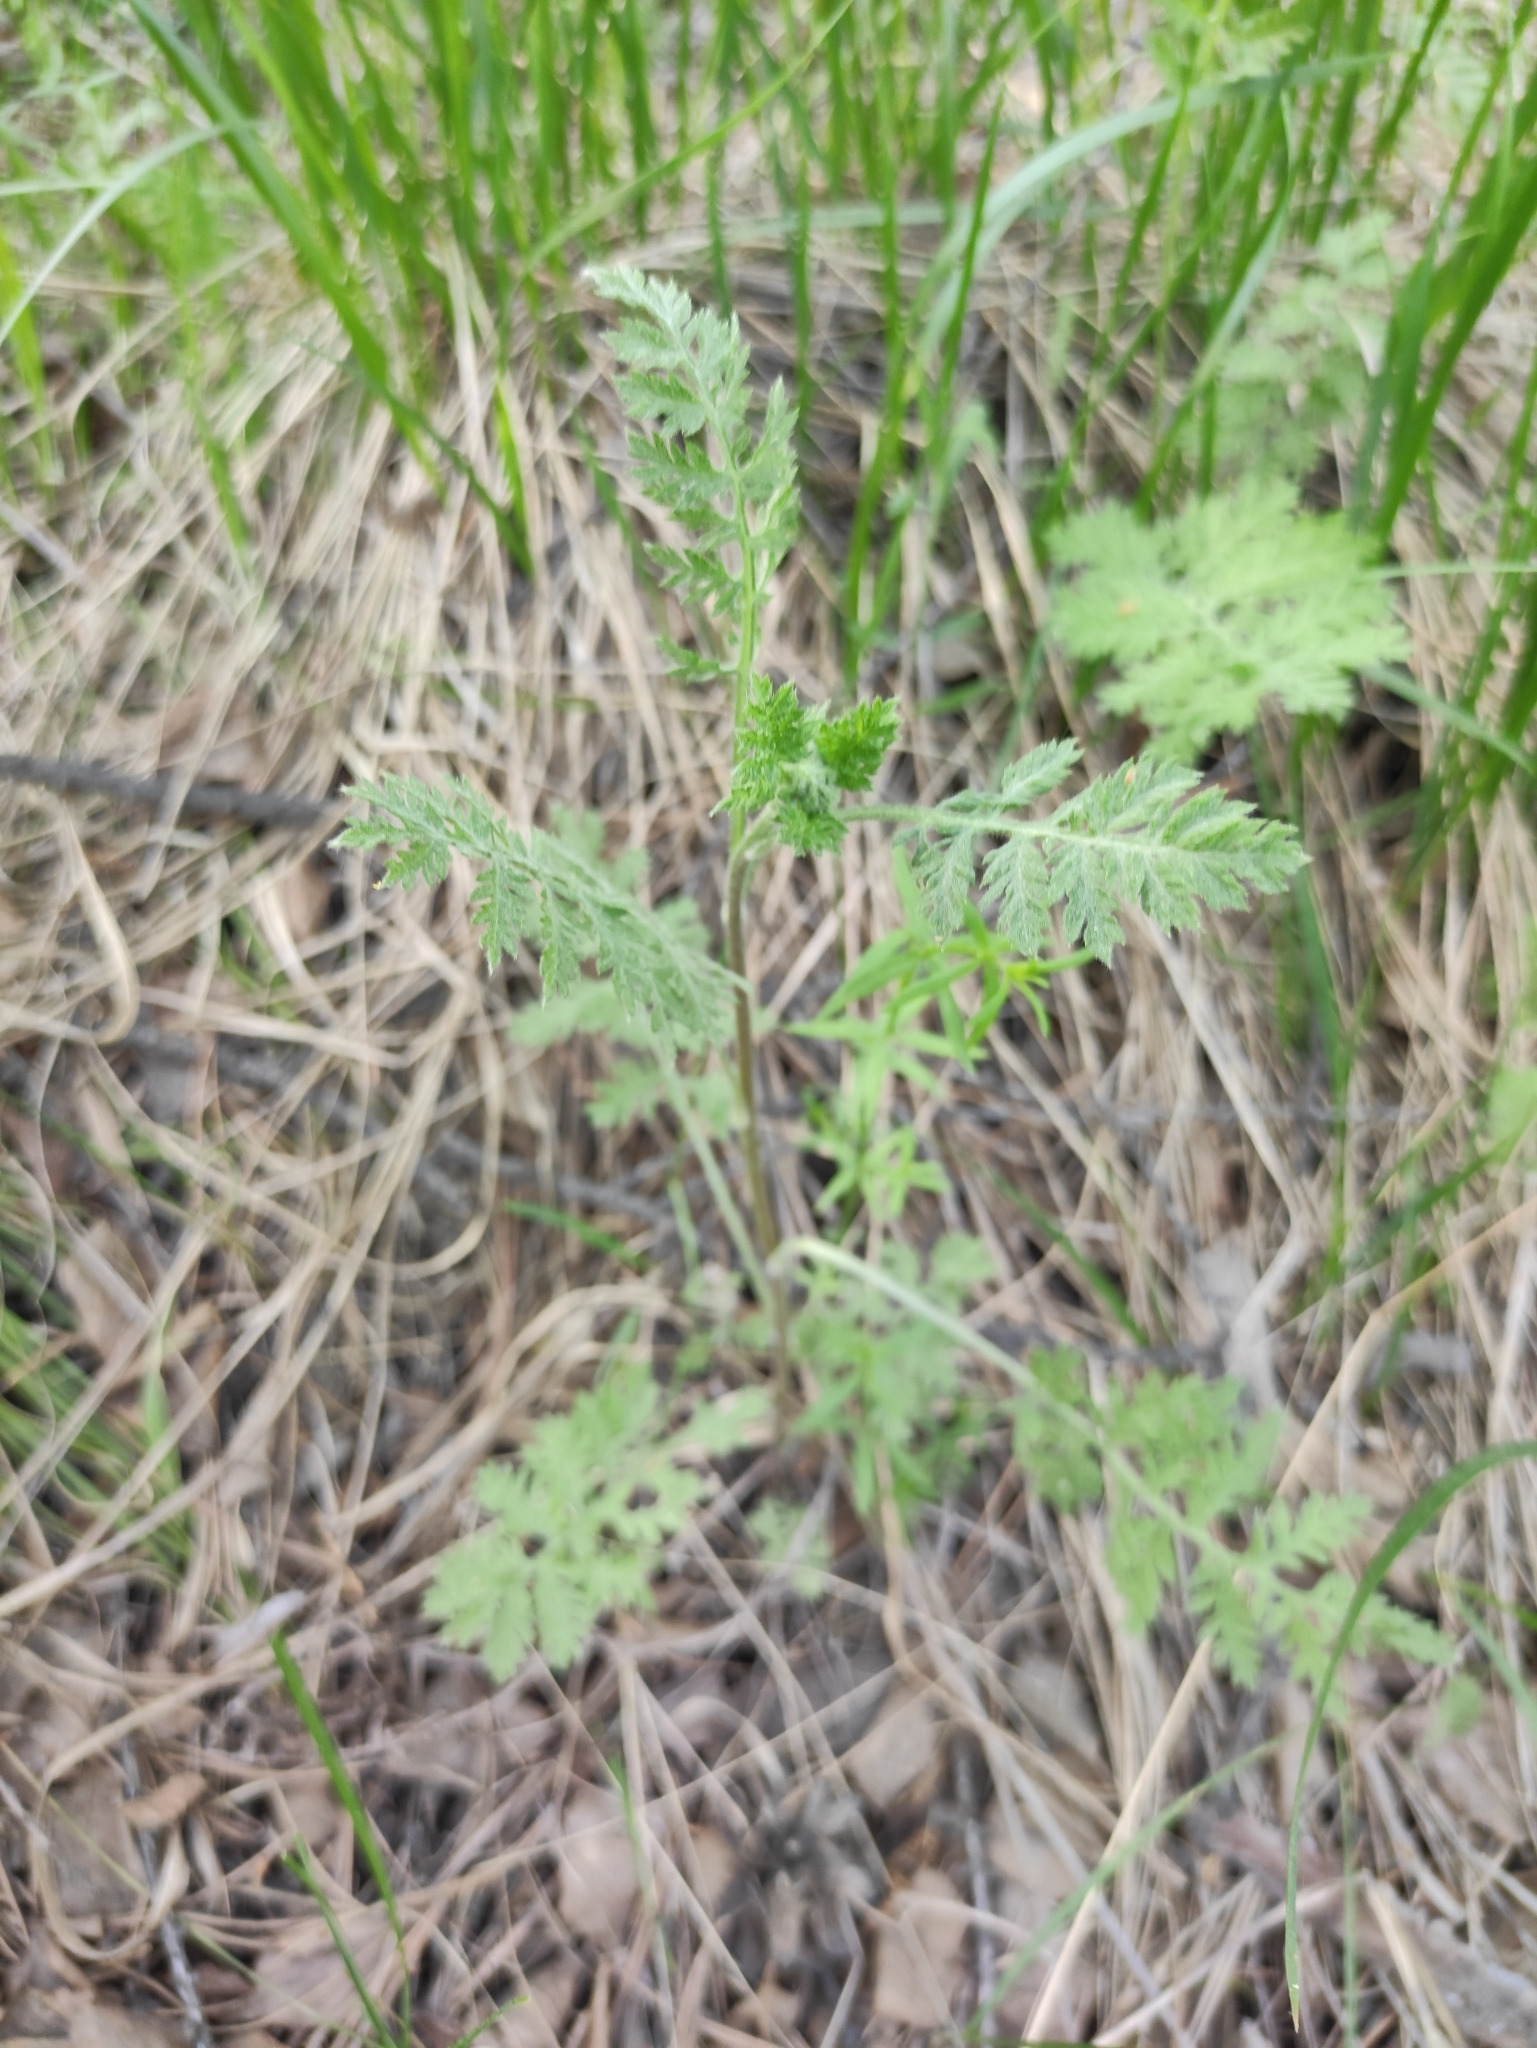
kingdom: Plantae
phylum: Tracheophyta
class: Magnoliopsida
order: Asterales
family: Asteraceae
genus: Artemisia
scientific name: Artemisia tanacetifolia
